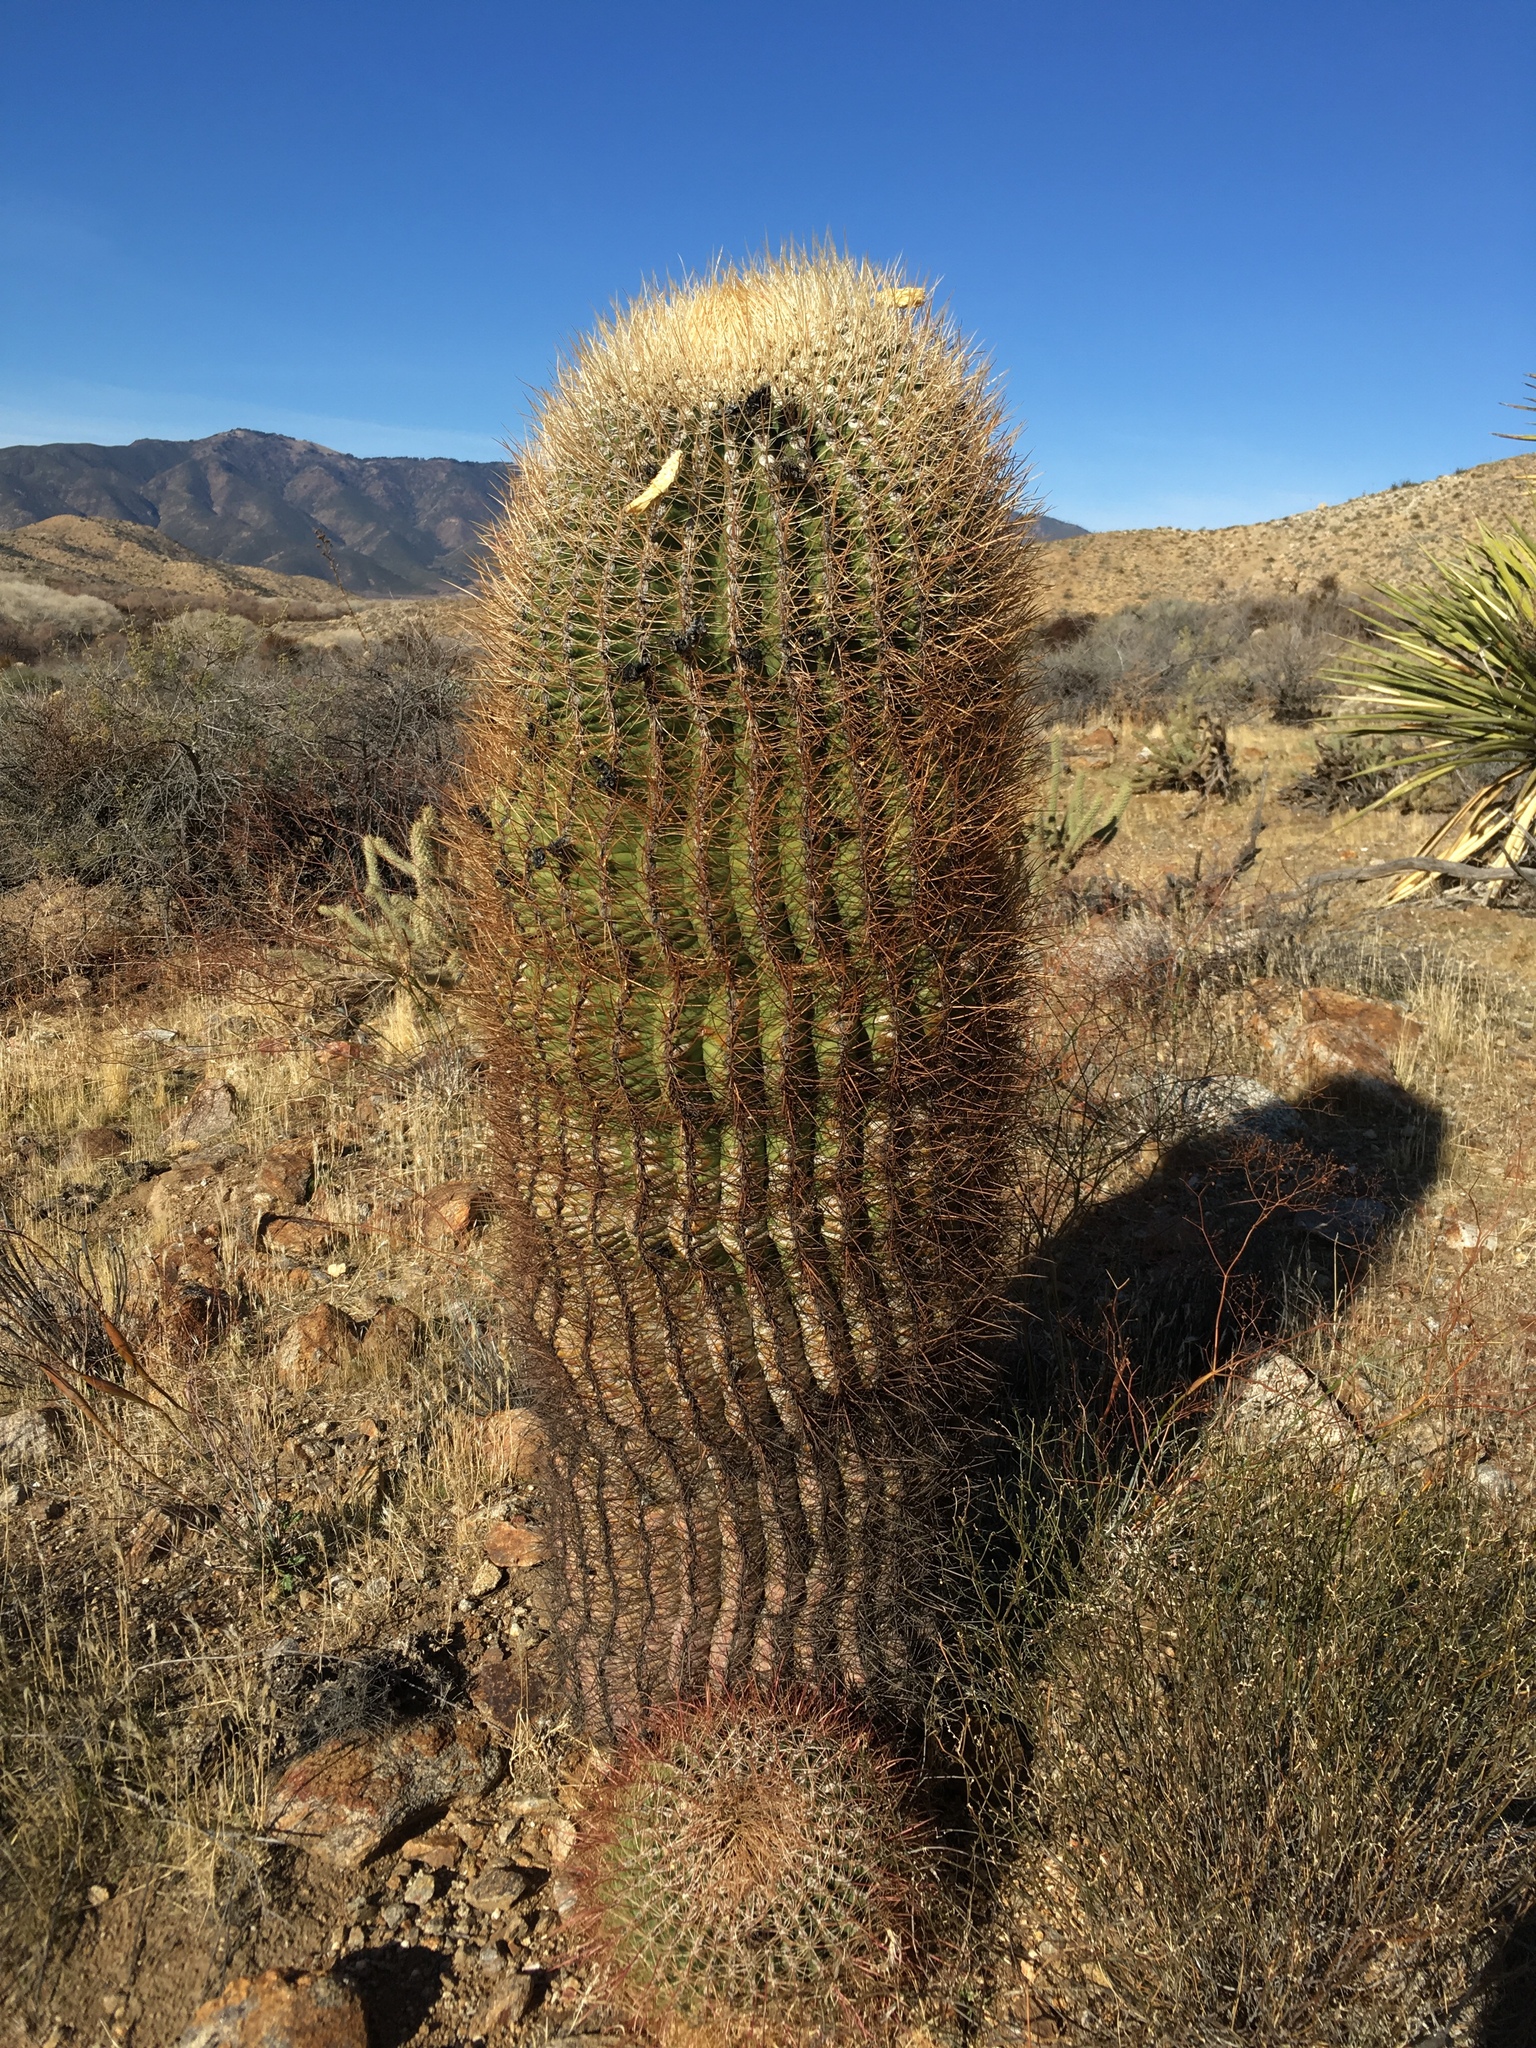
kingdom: Plantae
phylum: Tracheophyta
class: Magnoliopsida
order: Caryophyllales
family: Cactaceae
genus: Ferocactus
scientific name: Ferocactus cylindraceus
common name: California barrel cactus
